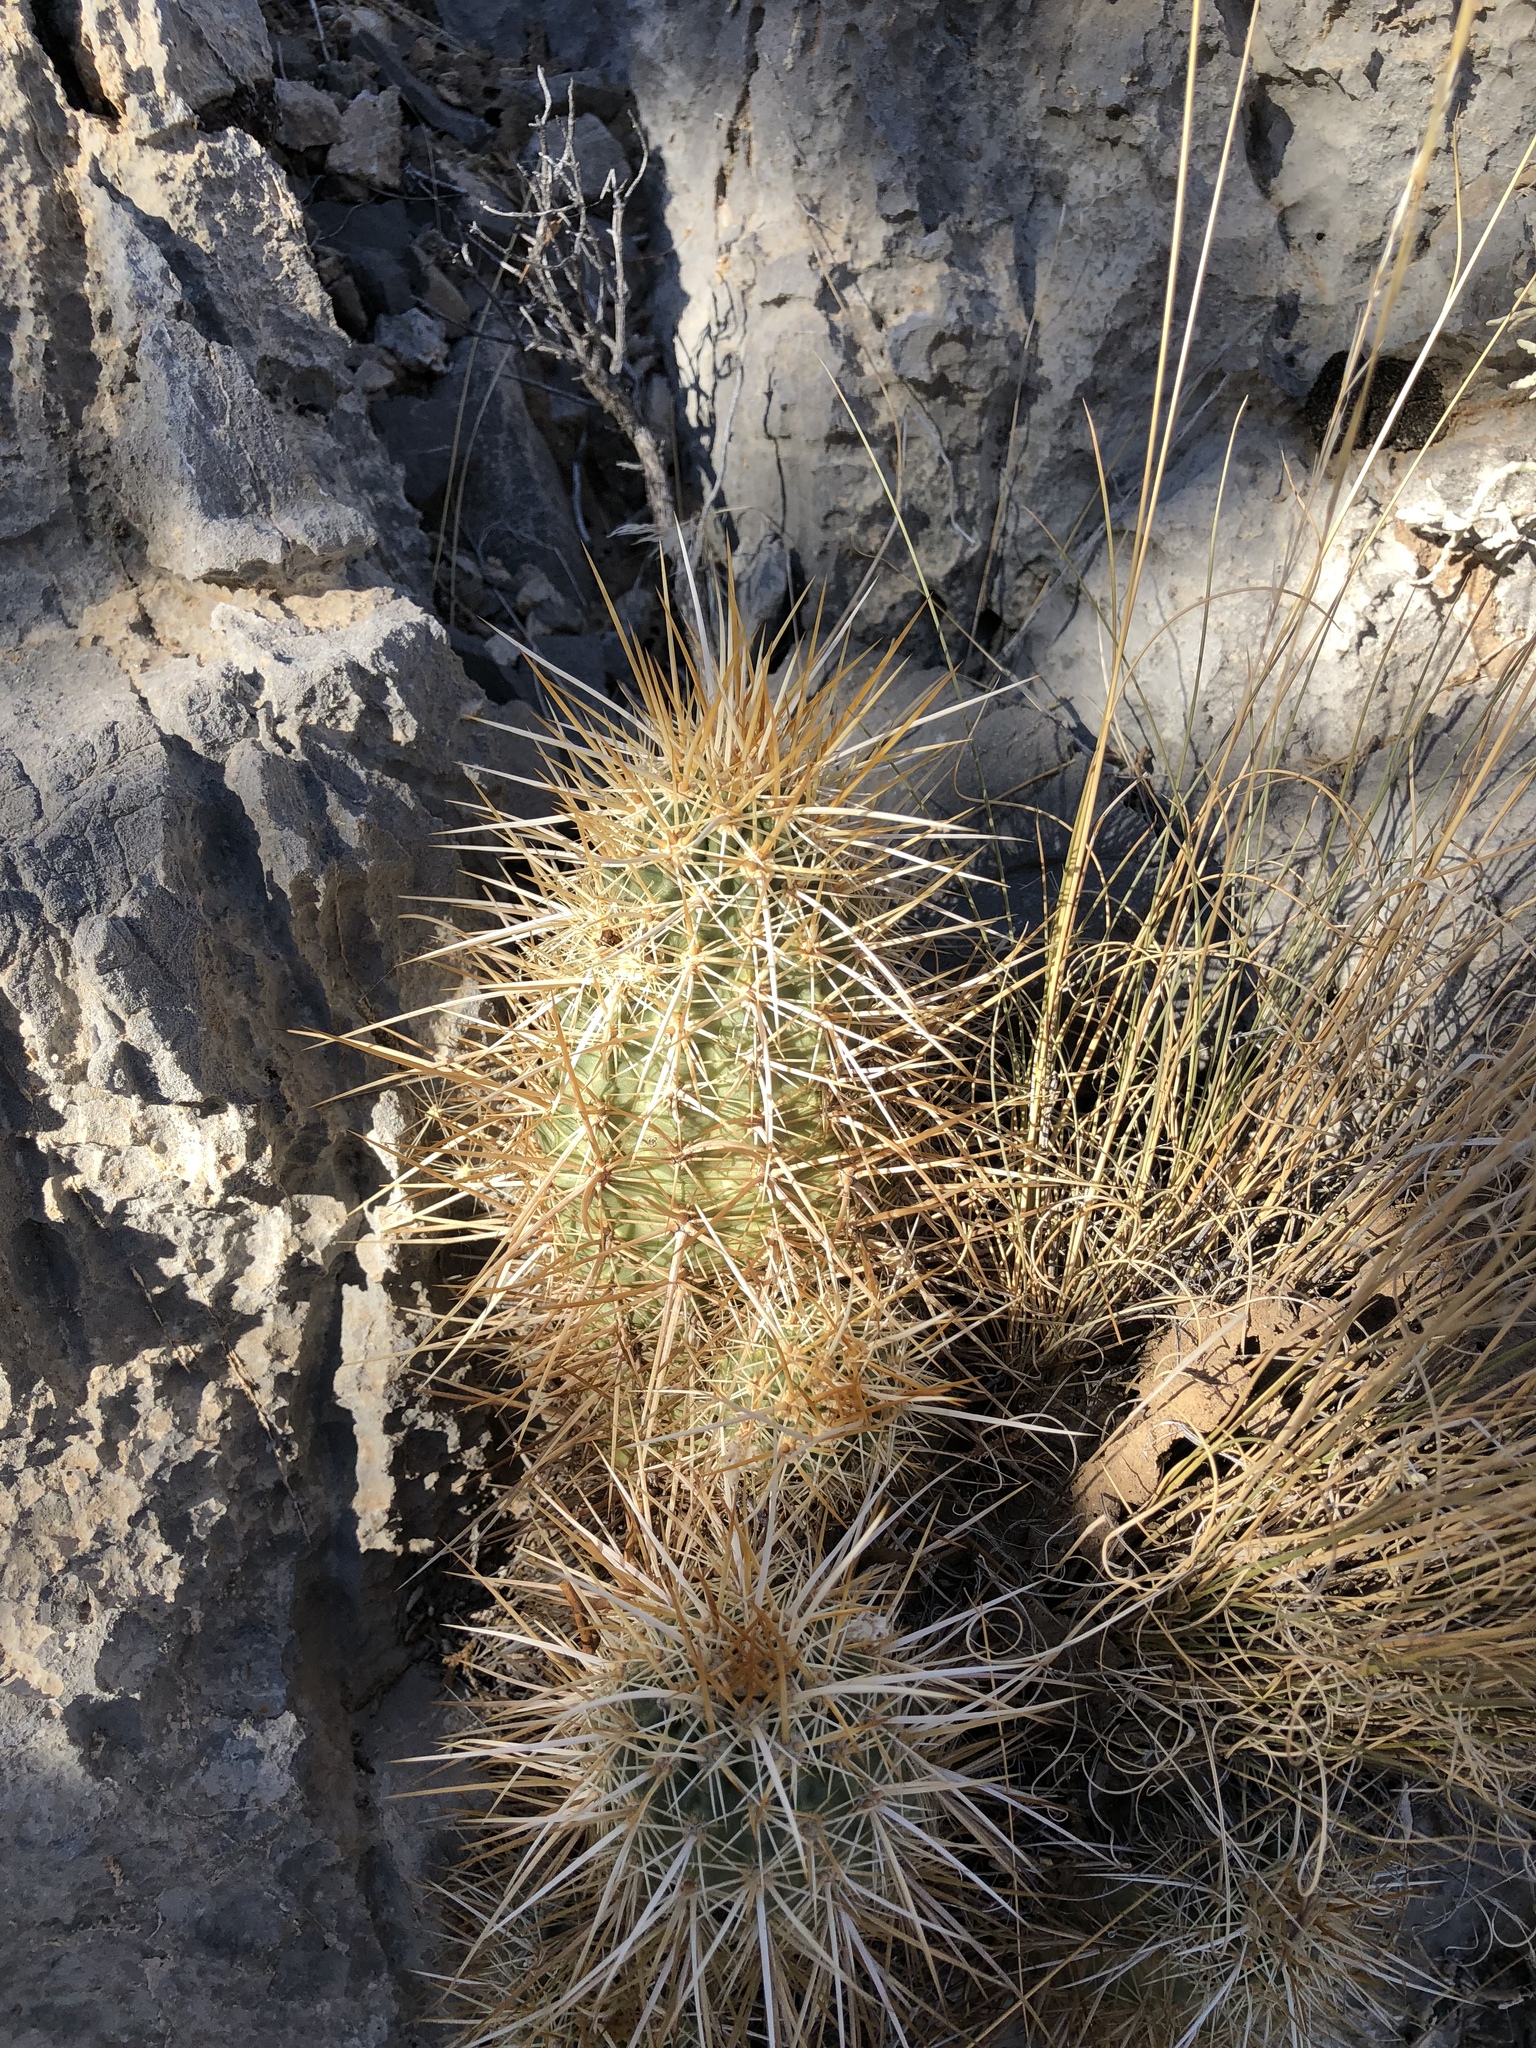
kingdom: Plantae
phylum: Tracheophyta
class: Magnoliopsida
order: Caryophyllales
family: Cactaceae
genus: Echinocereus
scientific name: Echinocereus engelmannii
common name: Engelmann's hedgehog cactus
